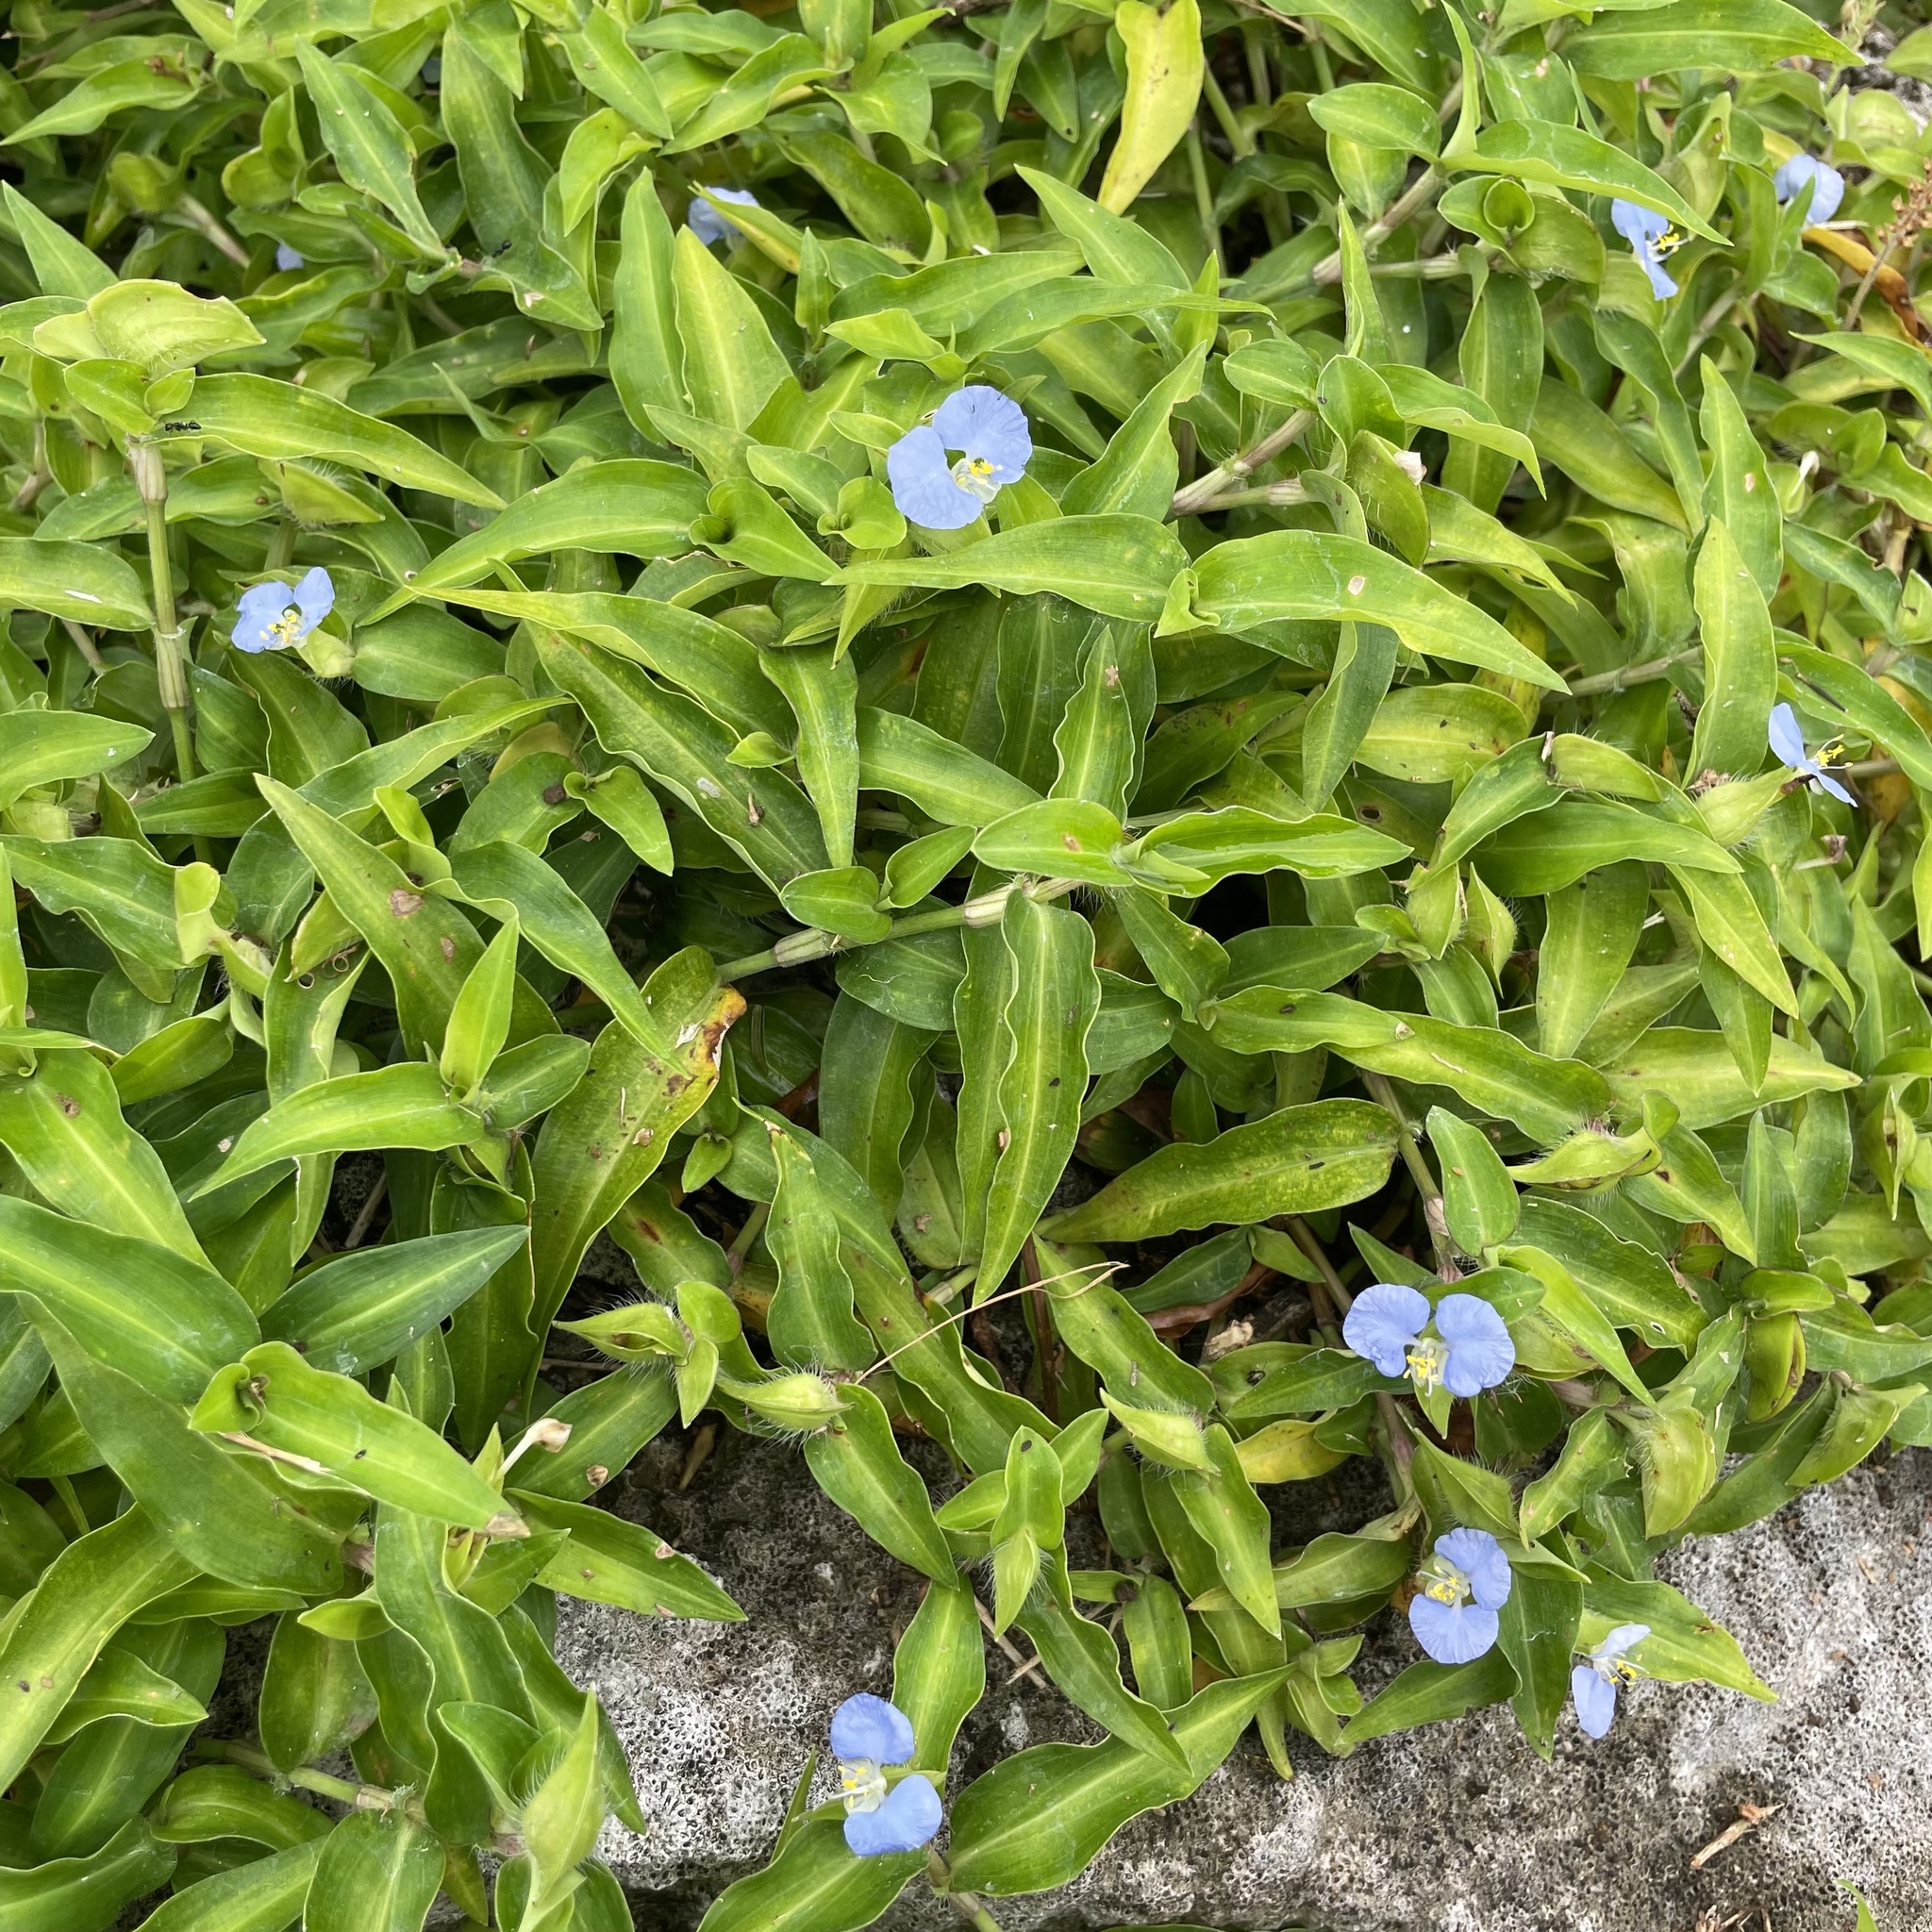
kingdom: Plantae
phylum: Tracheophyta
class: Liliopsida
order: Commelinales
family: Commelinaceae
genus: Commelina
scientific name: Commelina auriculata
